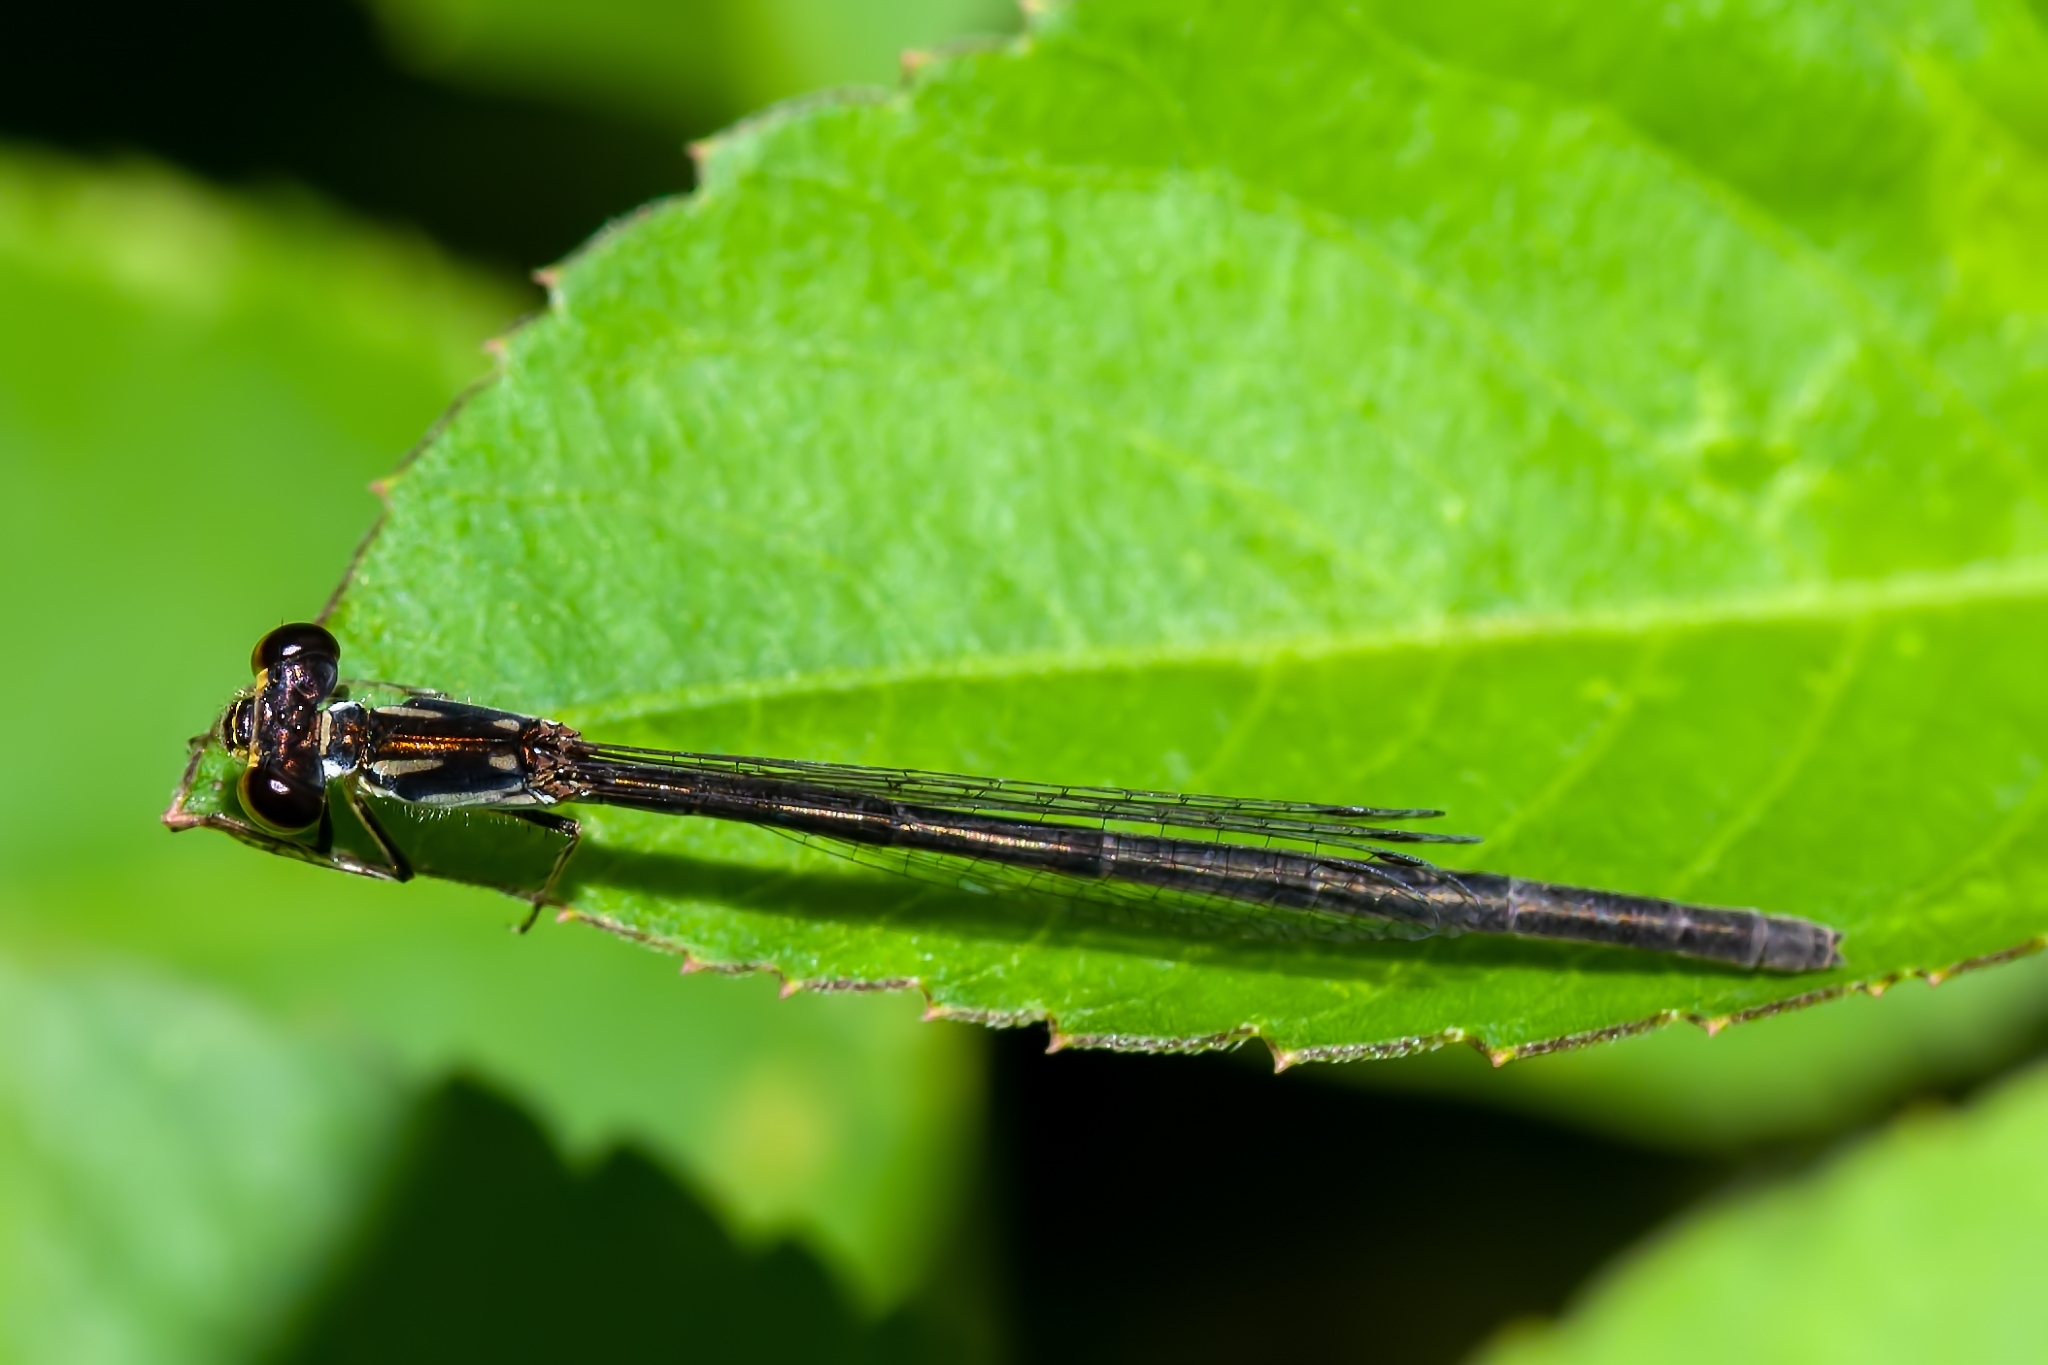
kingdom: Animalia
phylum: Arthropoda
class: Insecta
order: Odonata
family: Coenagrionidae
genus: Ischnura
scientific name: Ischnura posita
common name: Fragile forktail
